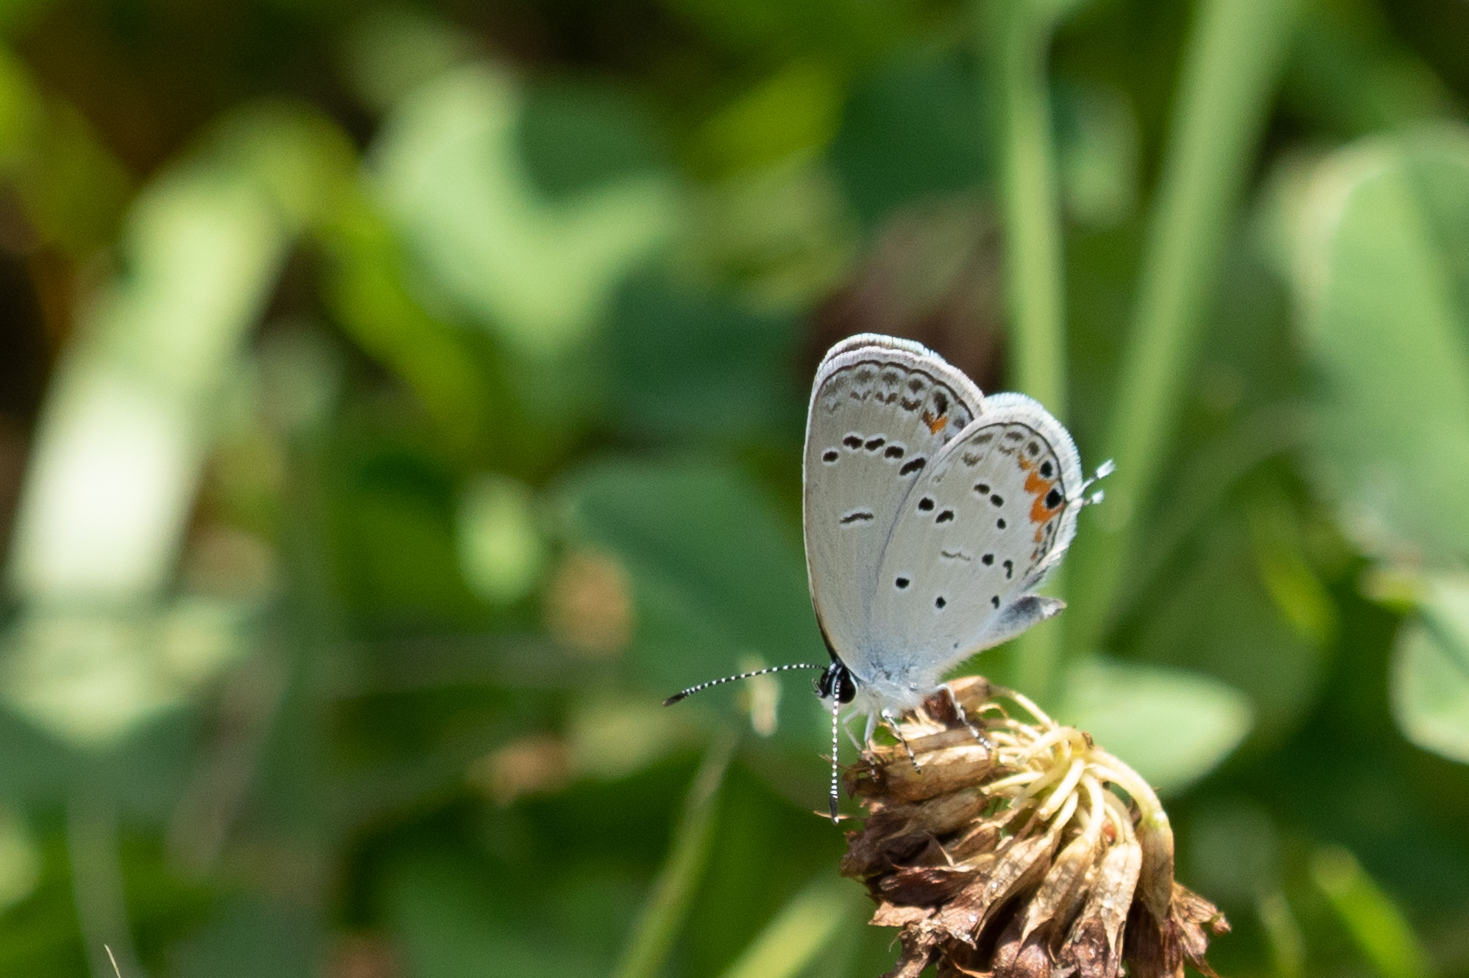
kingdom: Animalia
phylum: Arthropoda
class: Insecta
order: Lepidoptera
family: Lycaenidae
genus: Elkalyce
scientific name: Elkalyce comyntas
